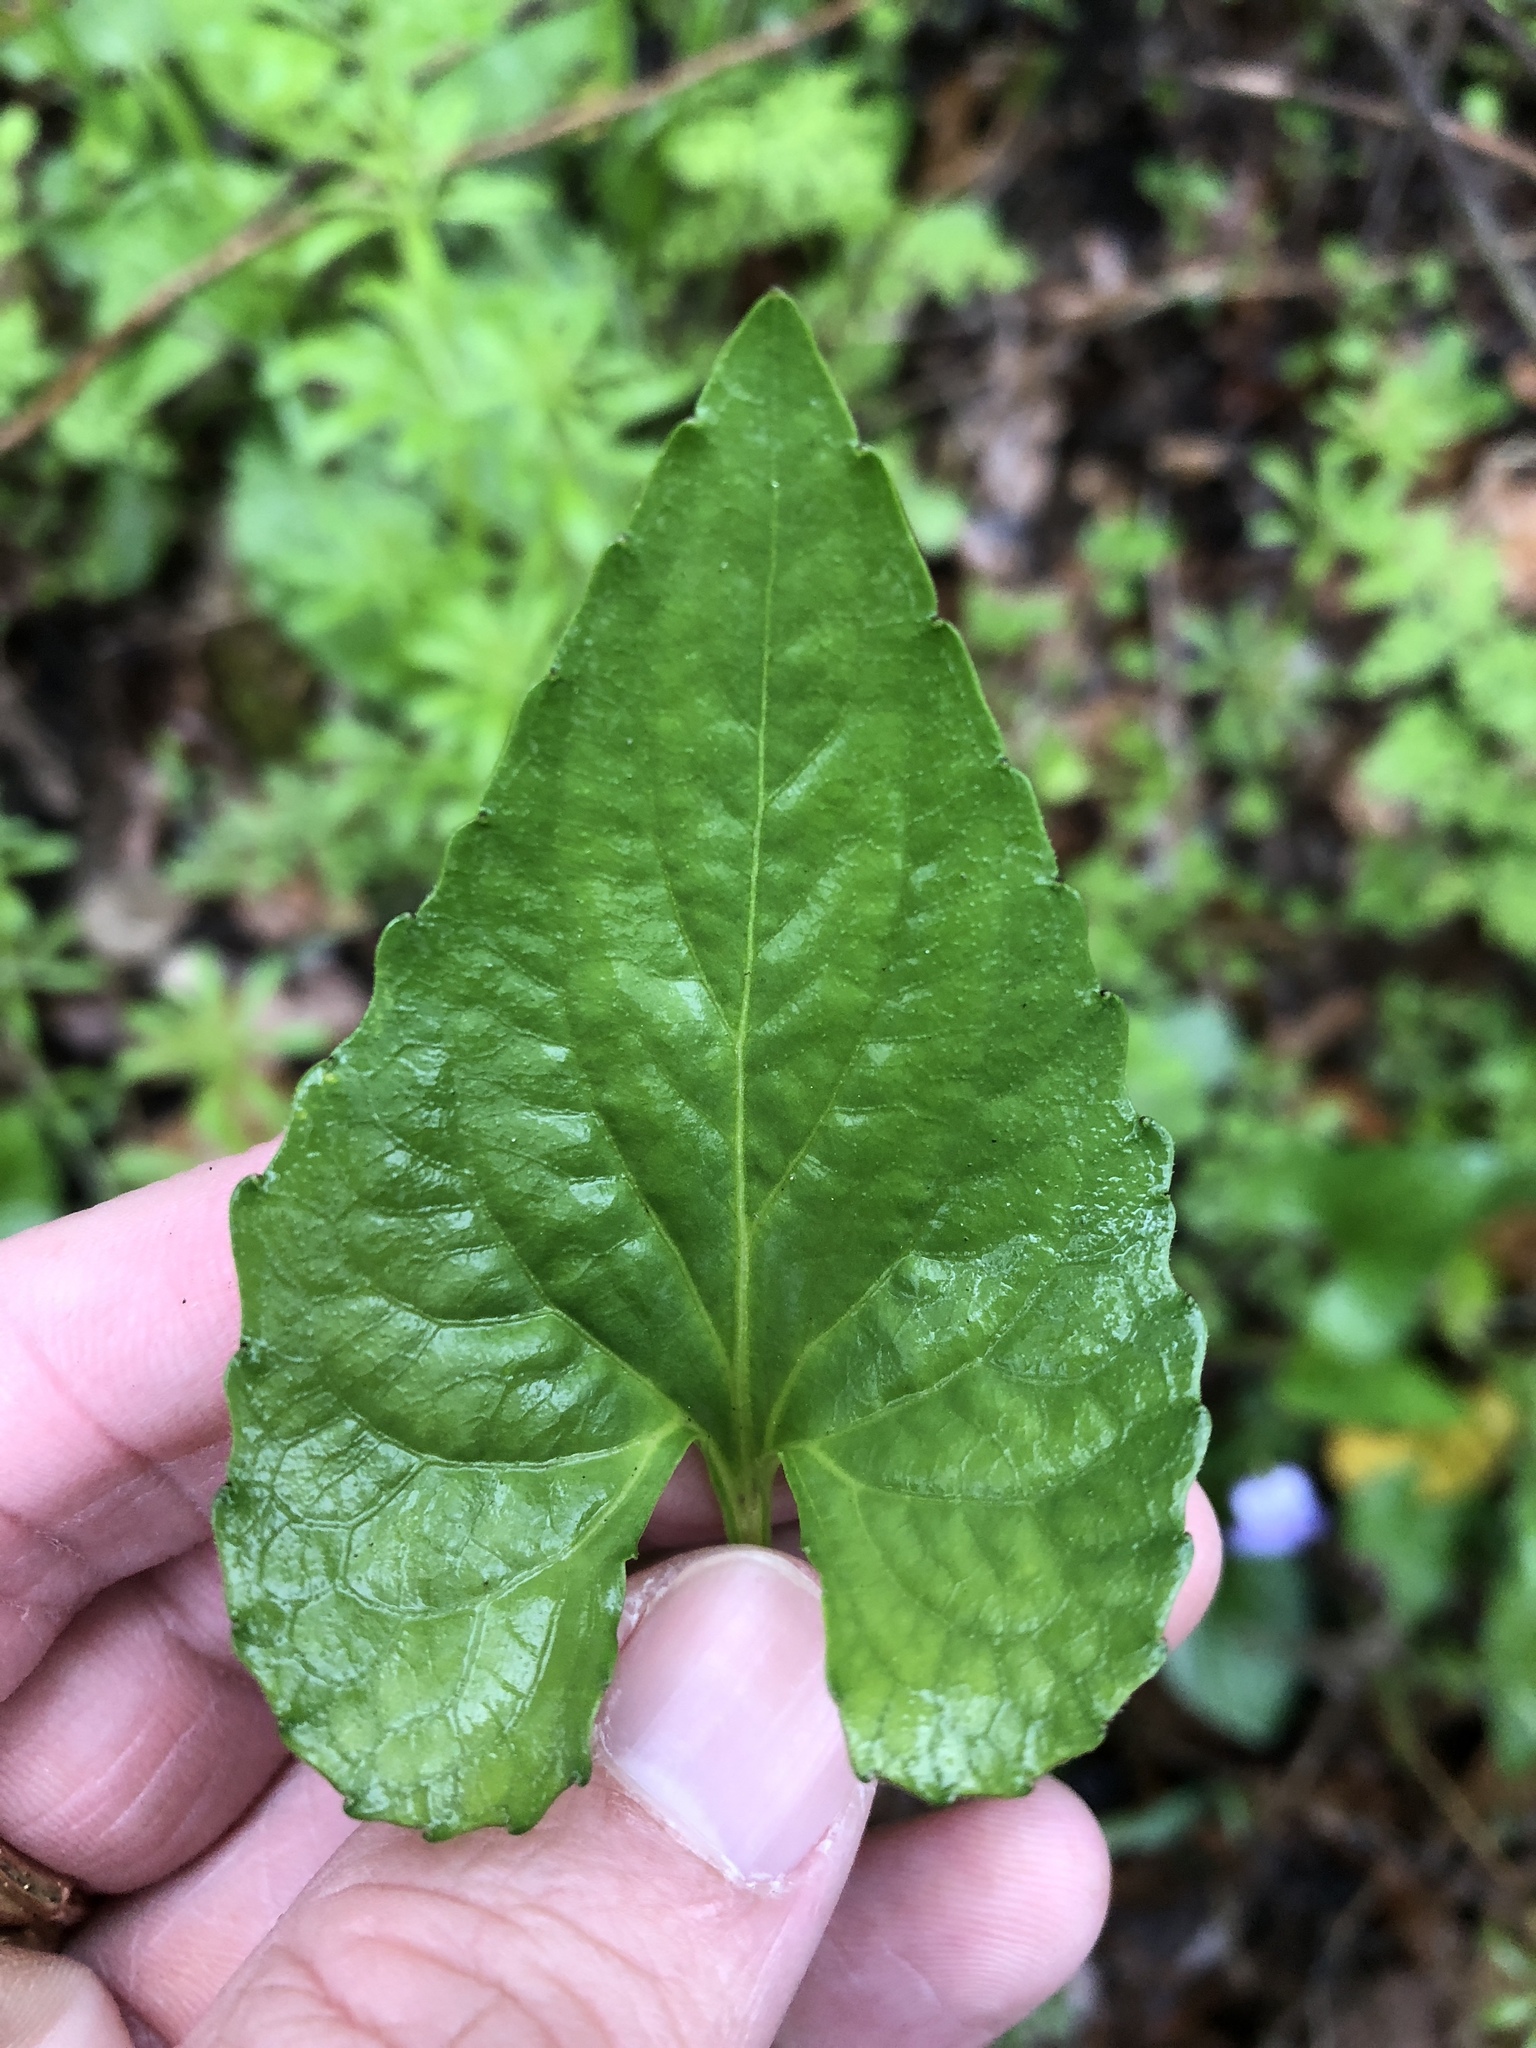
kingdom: Plantae
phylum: Tracheophyta
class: Magnoliopsida
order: Malpighiales
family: Violaceae
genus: Viola
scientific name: Viola missouriensis
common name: Missouri violet
